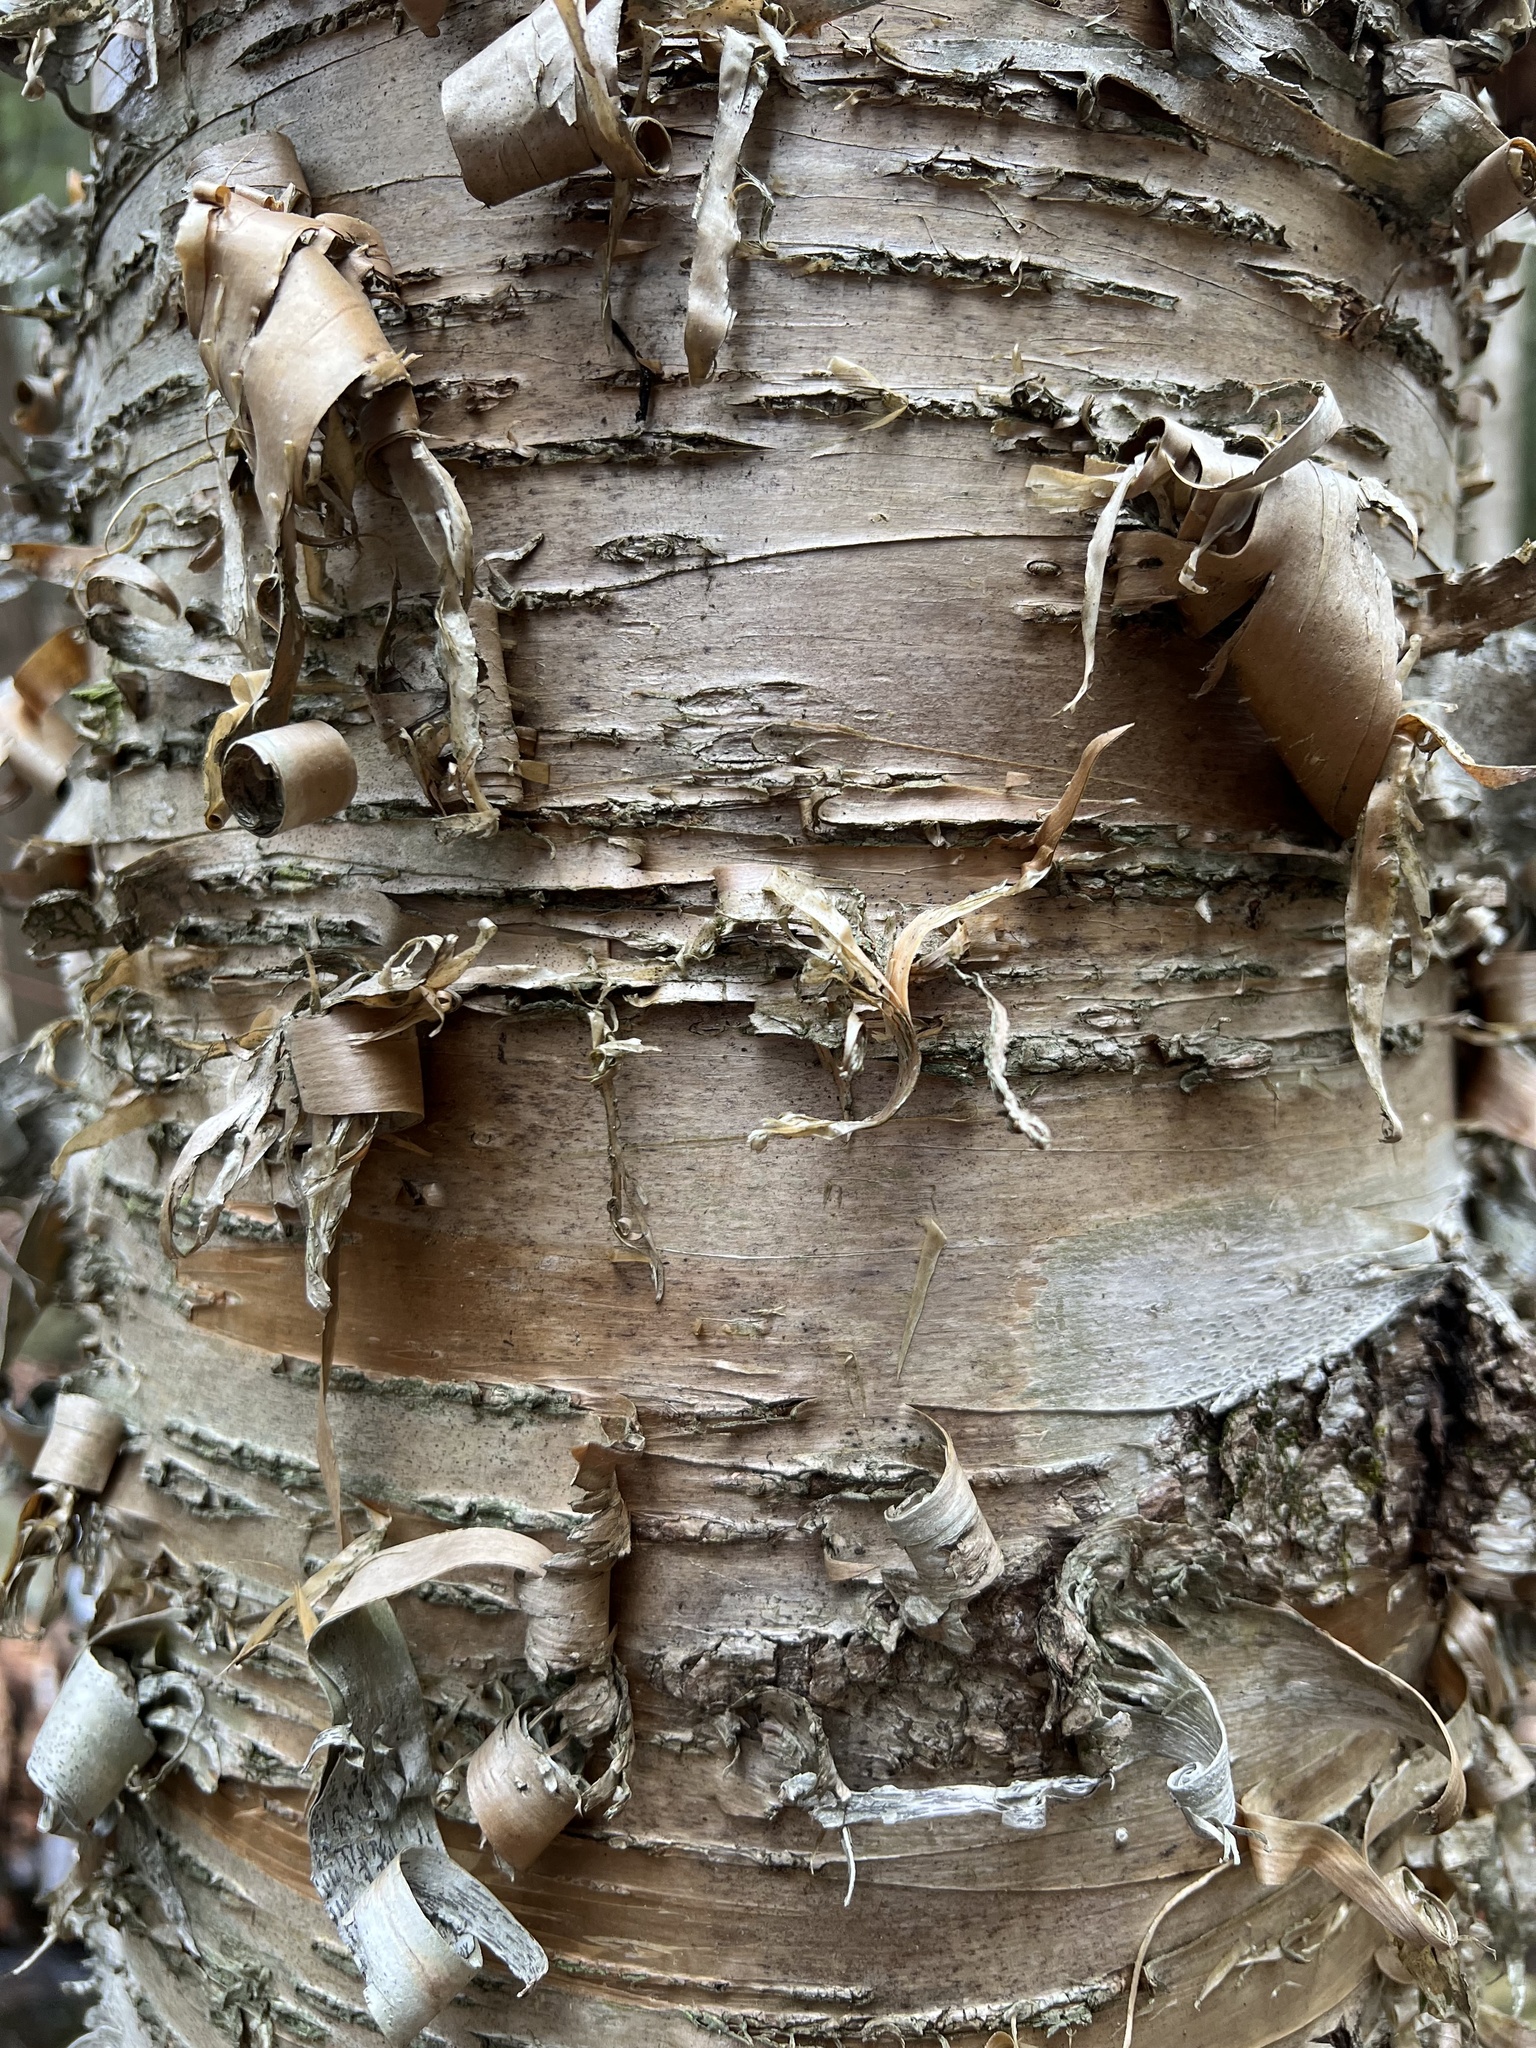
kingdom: Plantae
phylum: Tracheophyta
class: Magnoliopsida
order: Fagales
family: Betulaceae
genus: Betula
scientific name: Betula alleghaniensis
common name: Yellow birch
